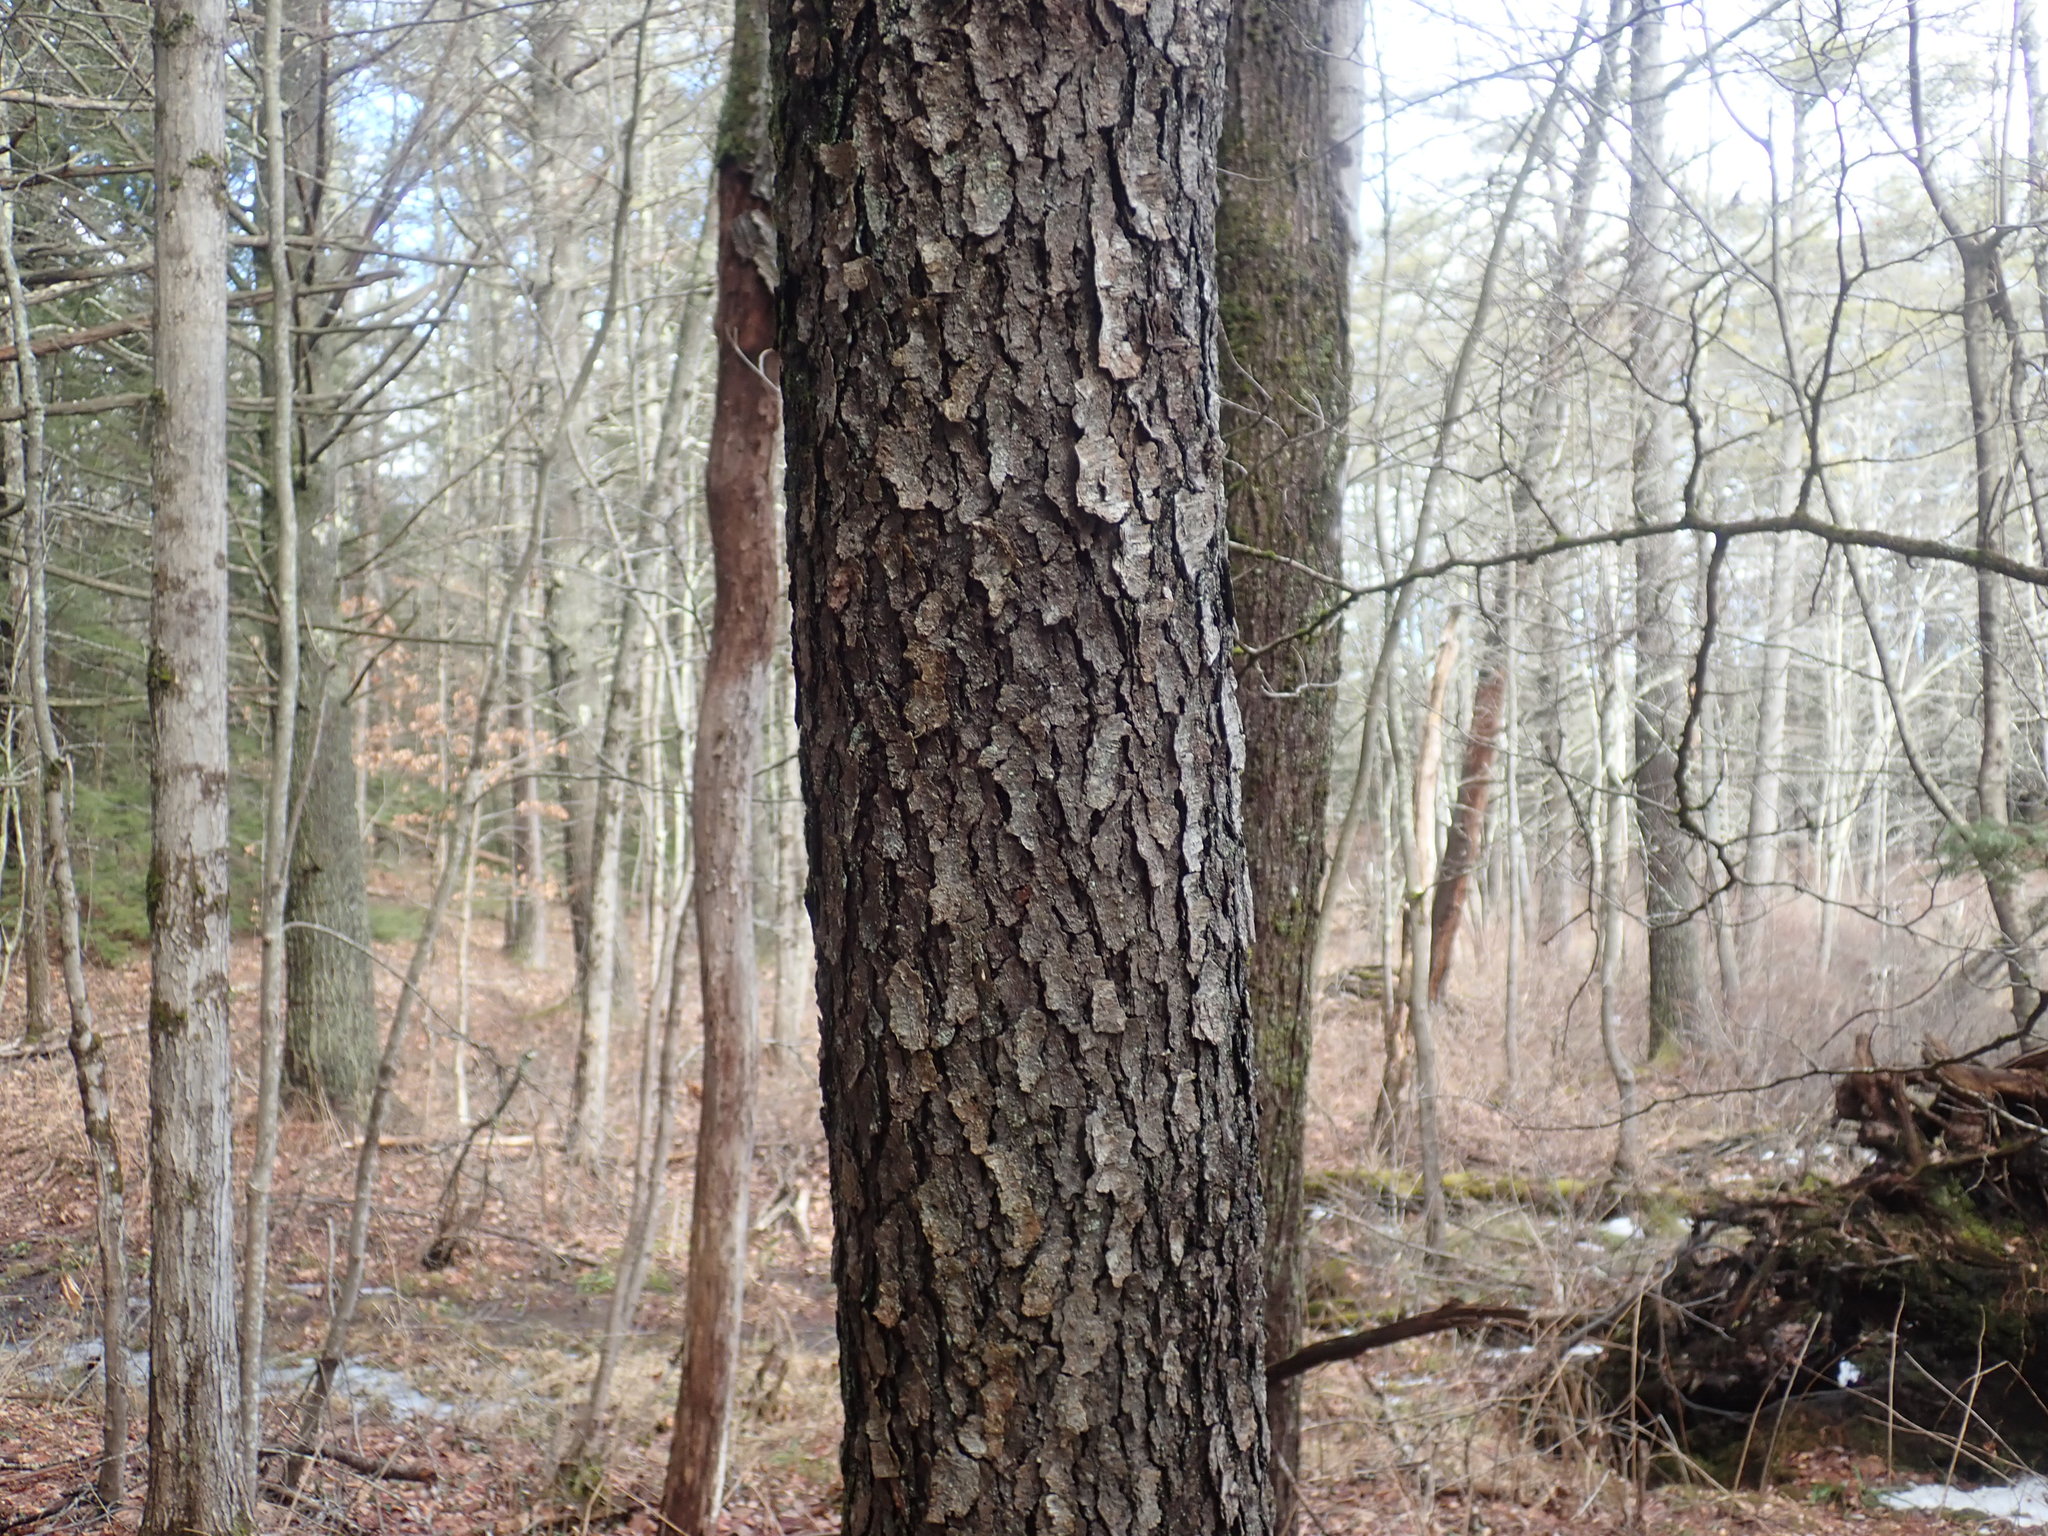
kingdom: Plantae
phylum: Tracheophyta
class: Magnoliopsida
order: Rosales
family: Rosaceae
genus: Prunus
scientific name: Prunus serotina
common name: Black cherry
